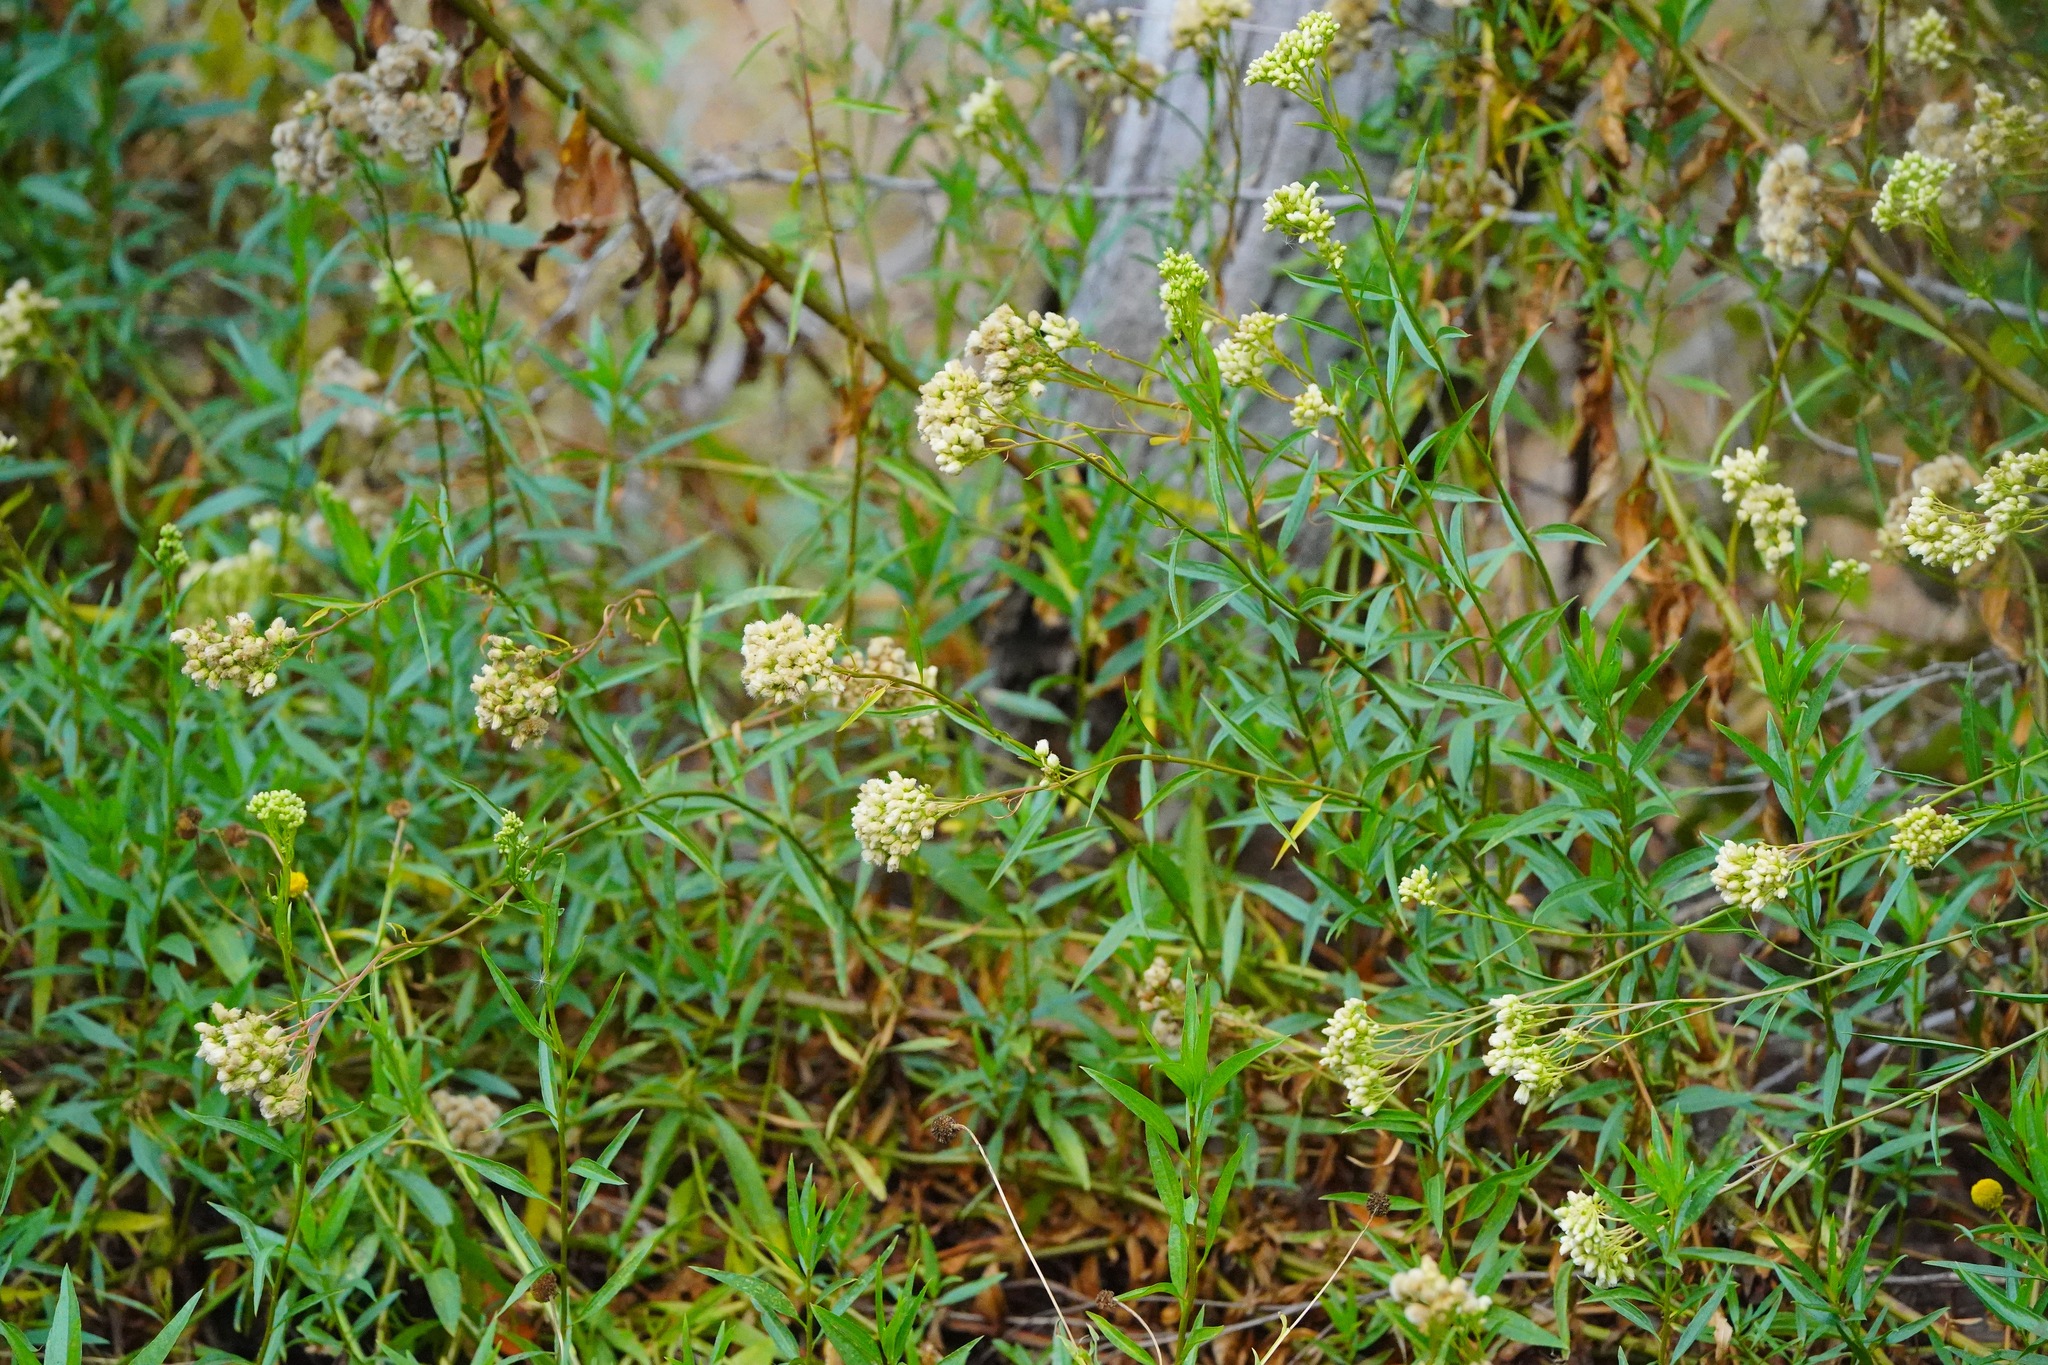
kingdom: Plantae
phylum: Tracheophyta
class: Magnoliopsida
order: Asterales
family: Asteraceae
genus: Baccharis
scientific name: Baccharis glutinosa
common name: Saltmarsh baccharis
